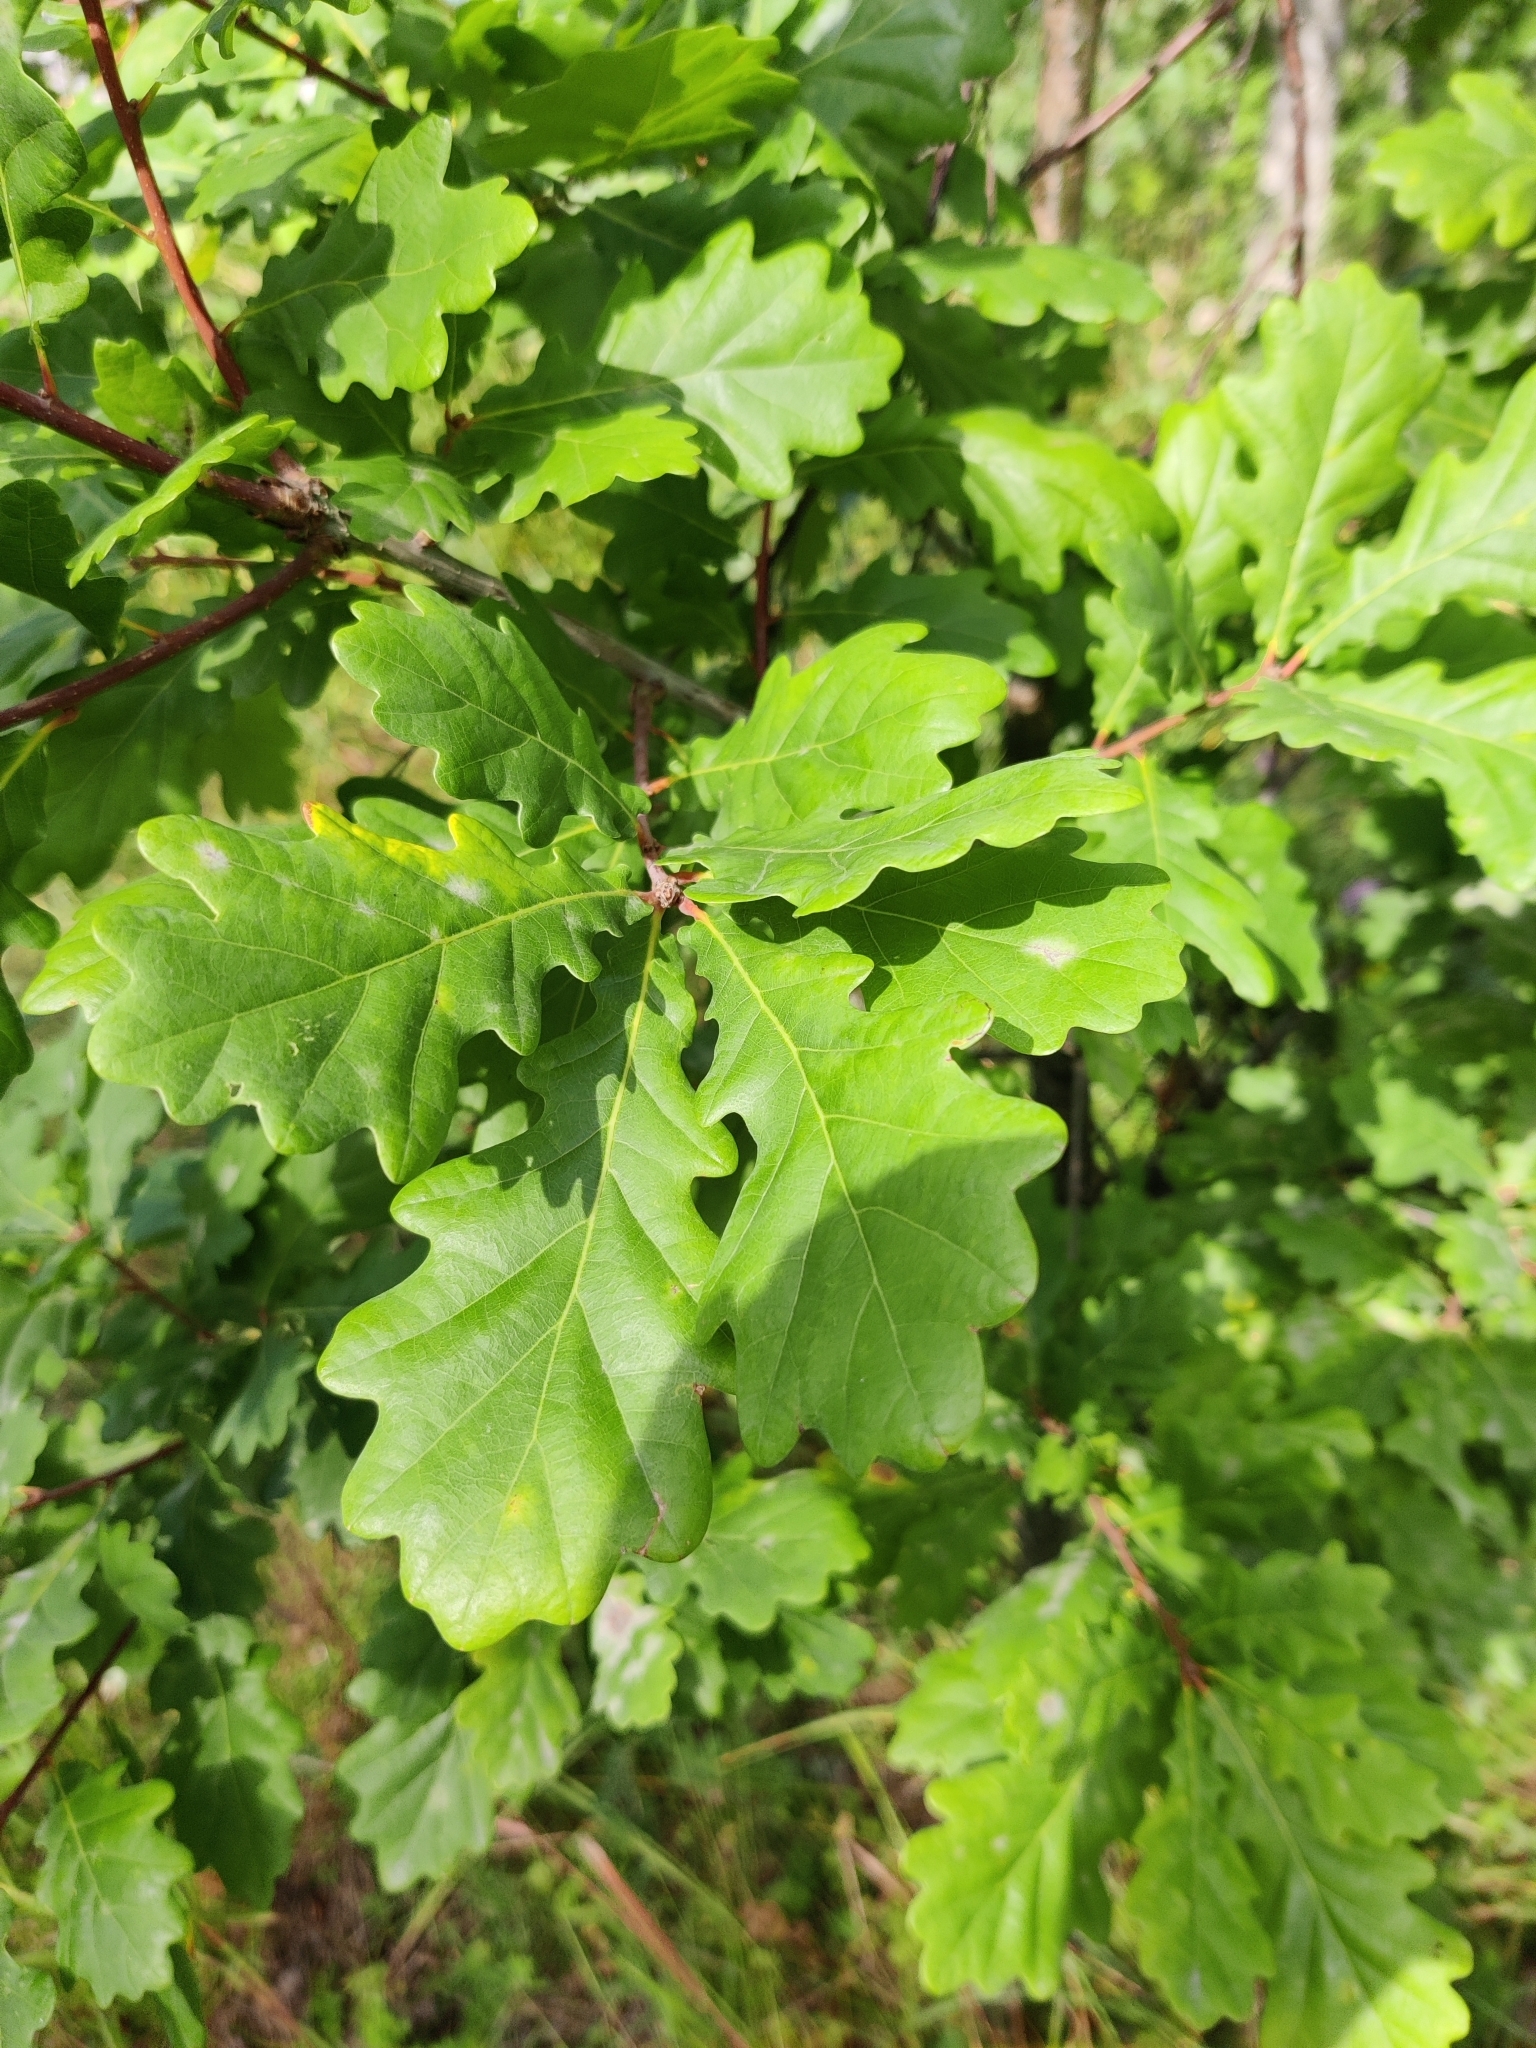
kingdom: Plantae
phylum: Tracheophyta
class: Magnoliopsida
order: Fagales
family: Fagaceae
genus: Quercus
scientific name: Quercus robur
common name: Pedunculate oak
